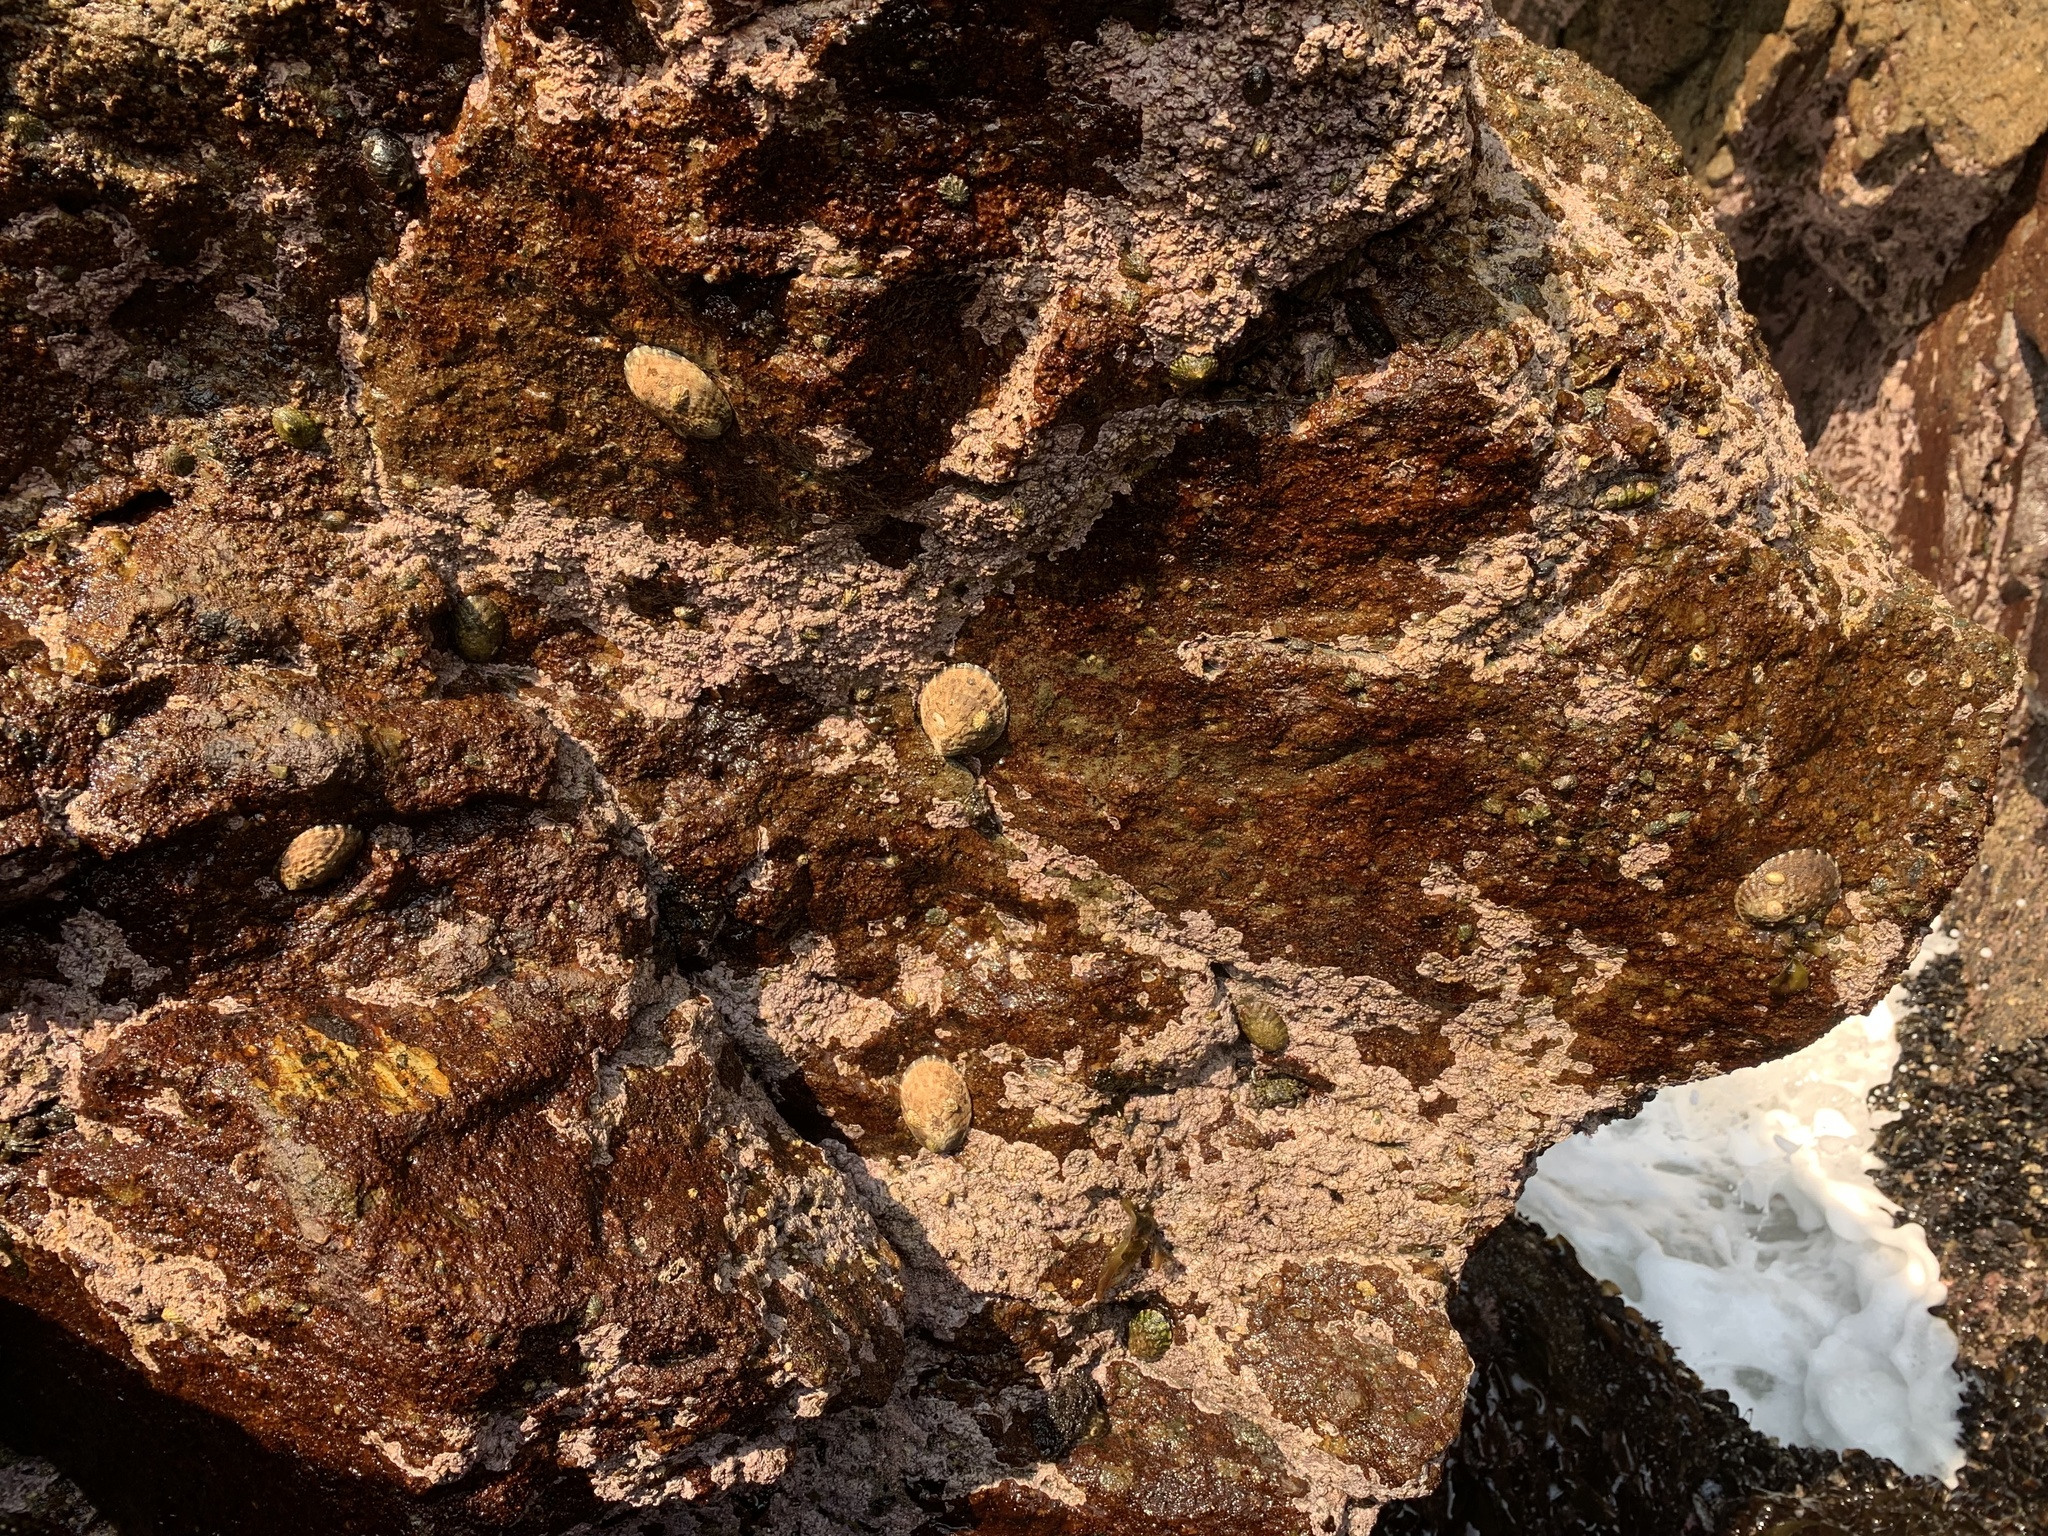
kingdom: Animalia
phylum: Mollusca
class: Gastropoda
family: Lottiidae
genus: Lottia
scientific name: Lottia gigantea
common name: Owl limpet
